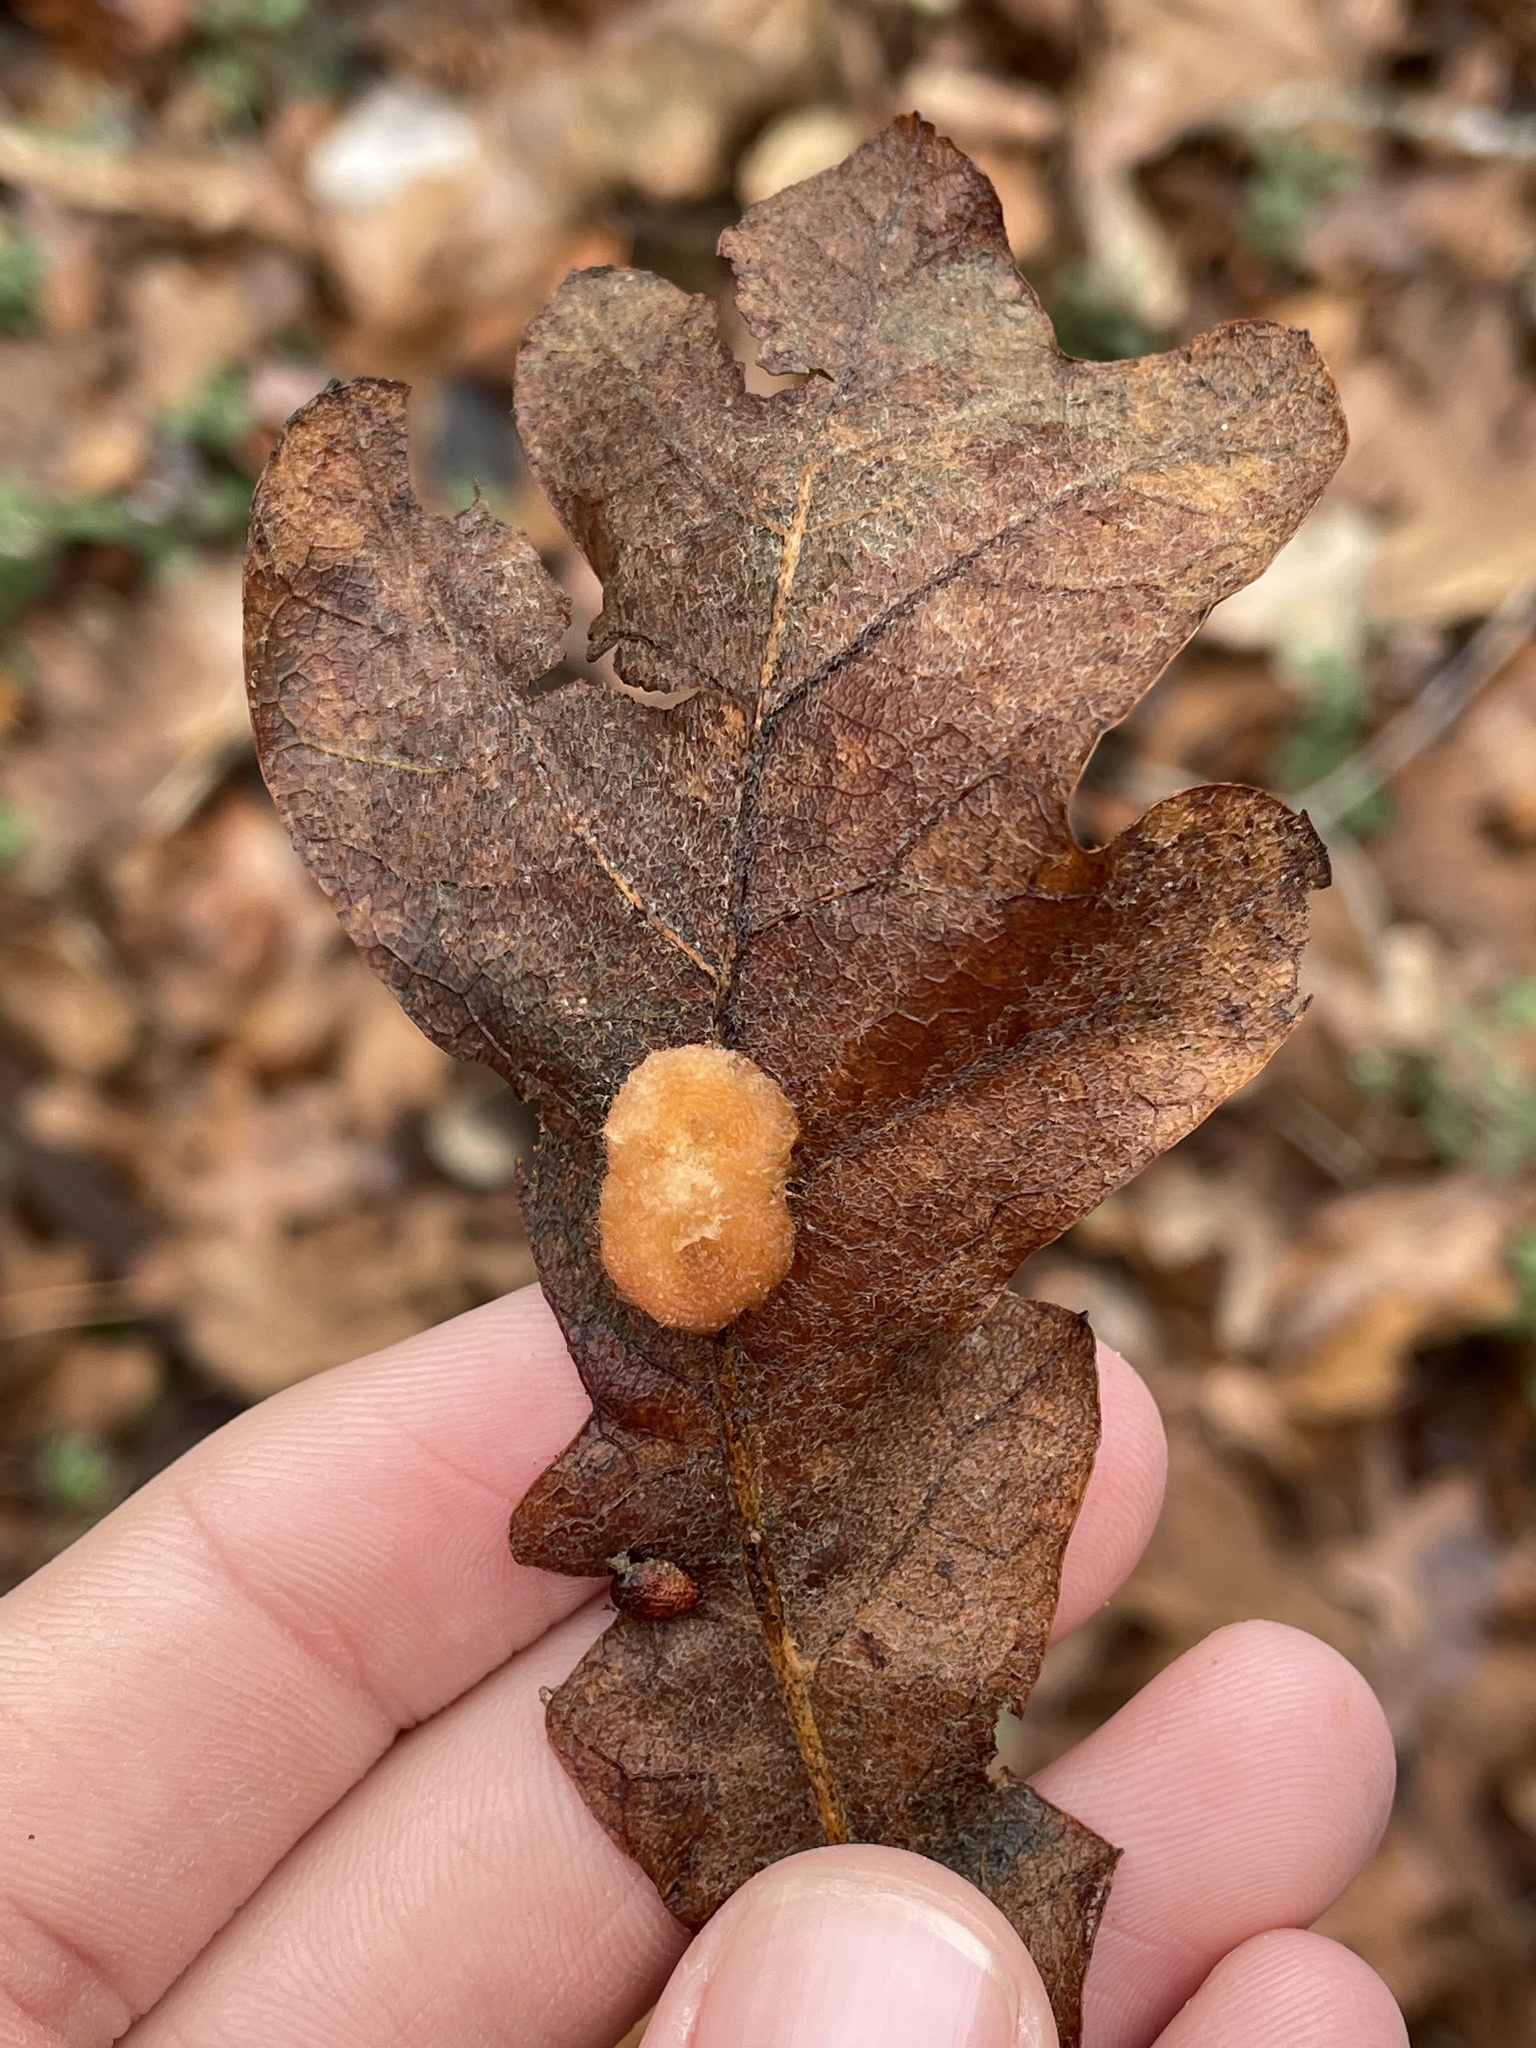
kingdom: Animalia
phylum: Arthropoda
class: Insecta
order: Hymenoptera
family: Cynipidae
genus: Andricus
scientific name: Andricus Druon pattoni
